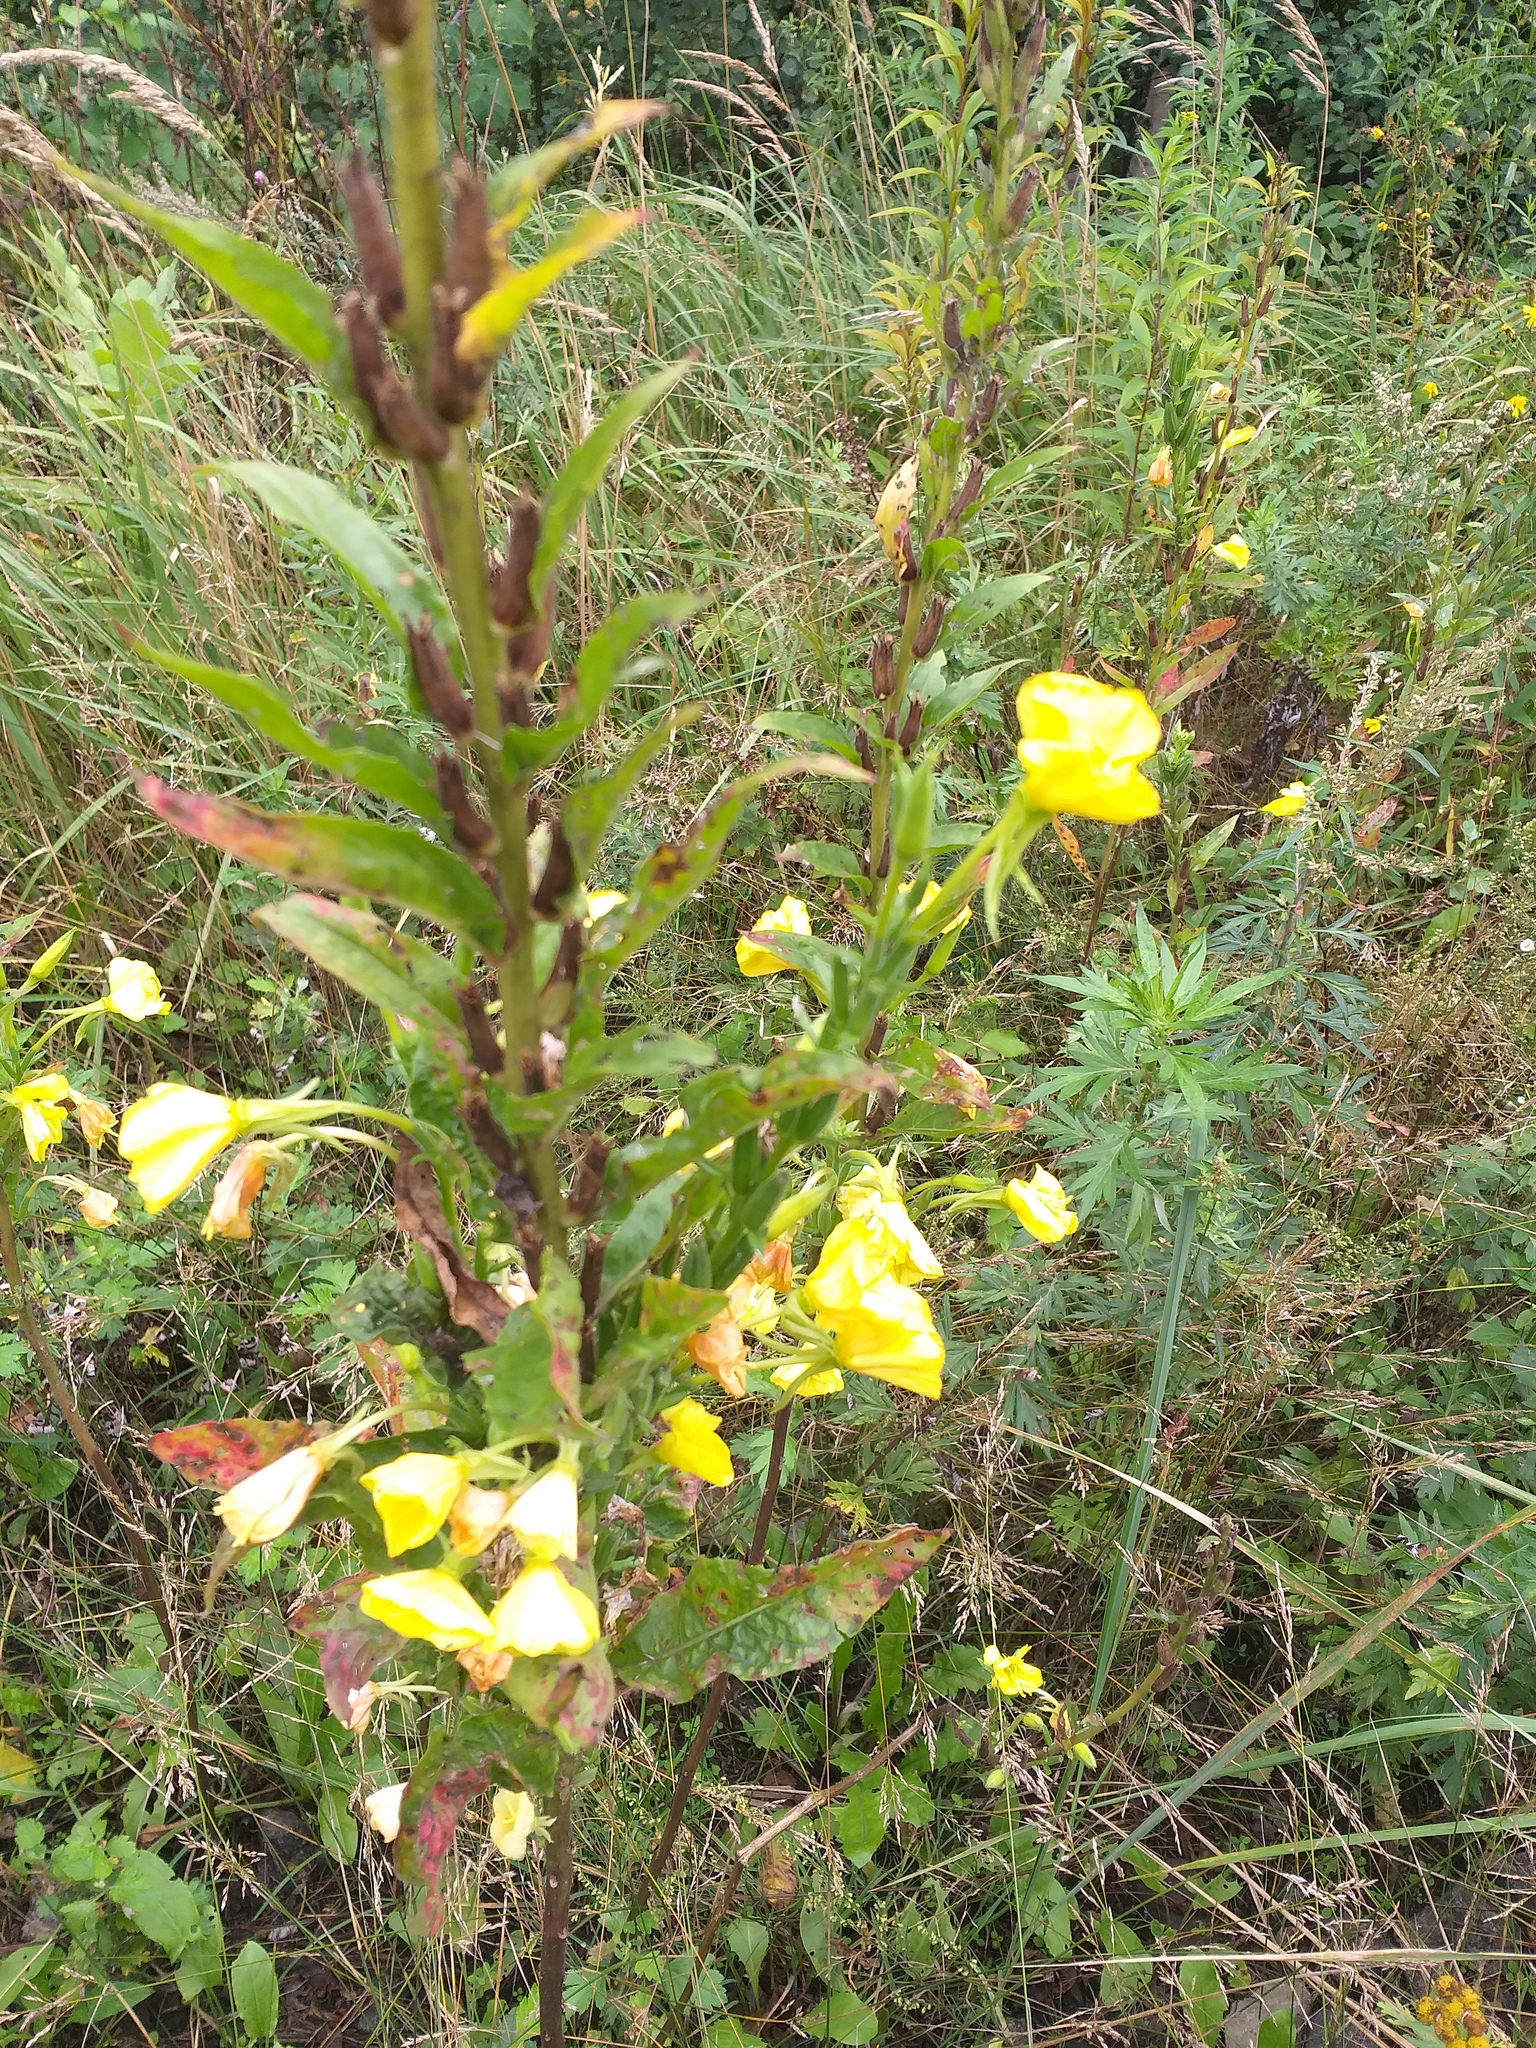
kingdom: Plantae
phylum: Tracheophyta
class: Magnoliopsida
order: Myrtales
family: Onagraceae
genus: Oenothera
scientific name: Oenothera biennis
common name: Common evening-primrose
